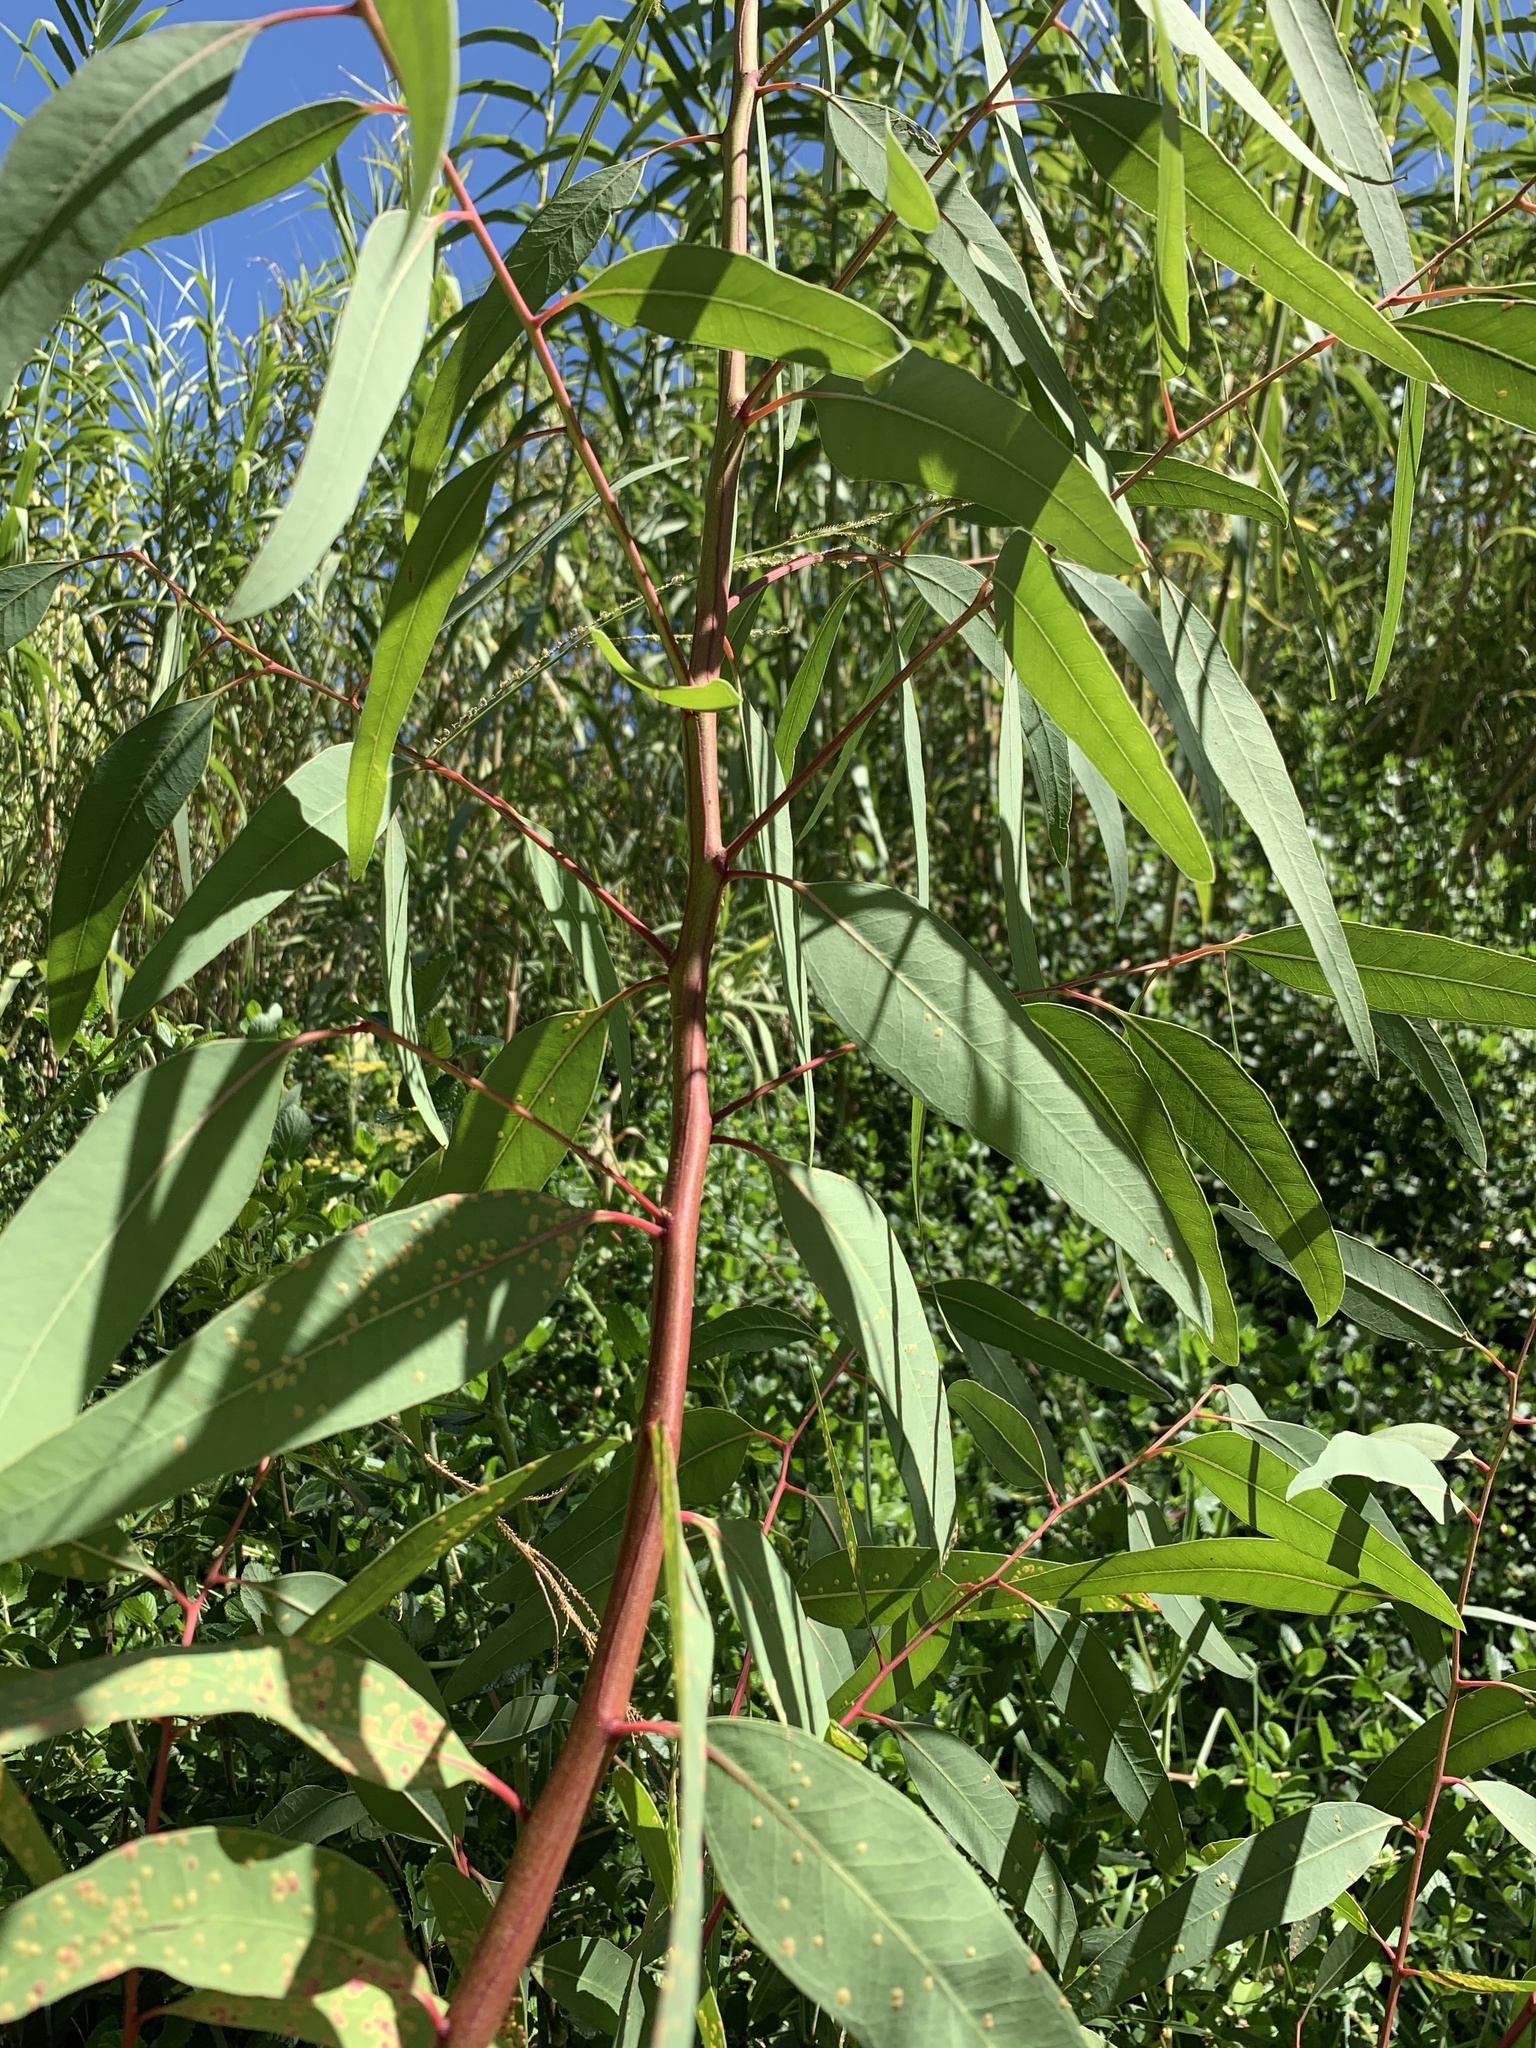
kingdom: Plantae
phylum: Tracheophyta
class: Magnoliopsida
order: Myrtales
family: Myrtaceae
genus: Eucalyptus
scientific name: Eucalyptus camaldulensis
